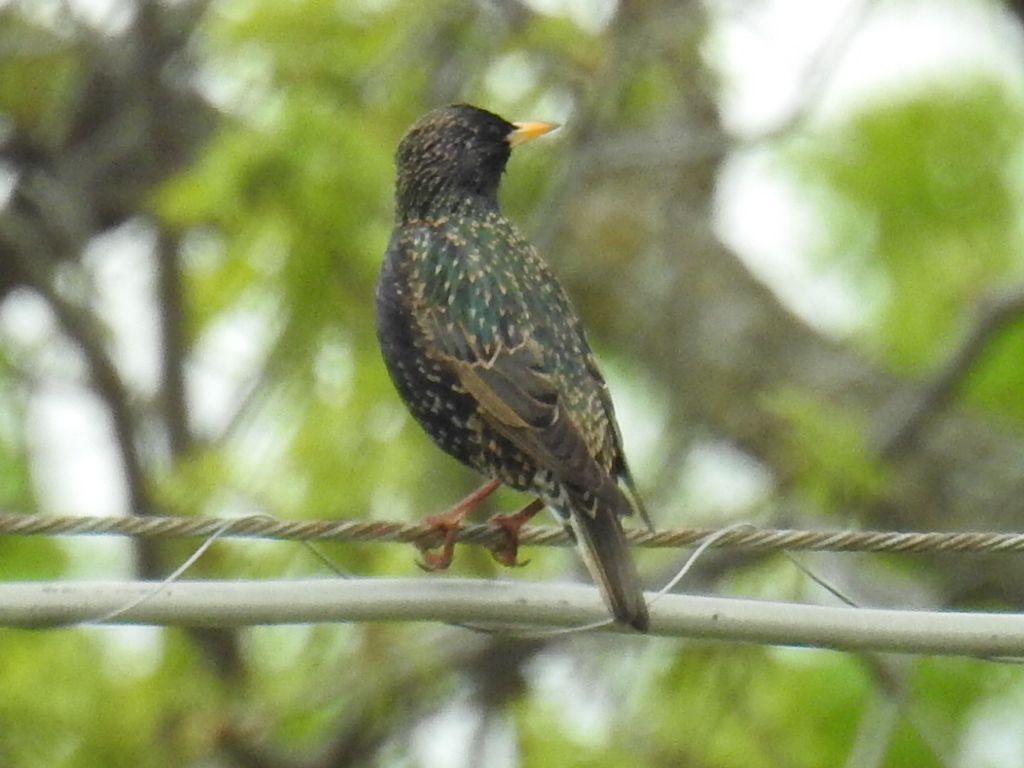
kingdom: Animalia
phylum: Chordata
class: Aves
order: Passeriformes
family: Sturnidae
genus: Sturnus
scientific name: Sturnus vulgaris
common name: Common starling
